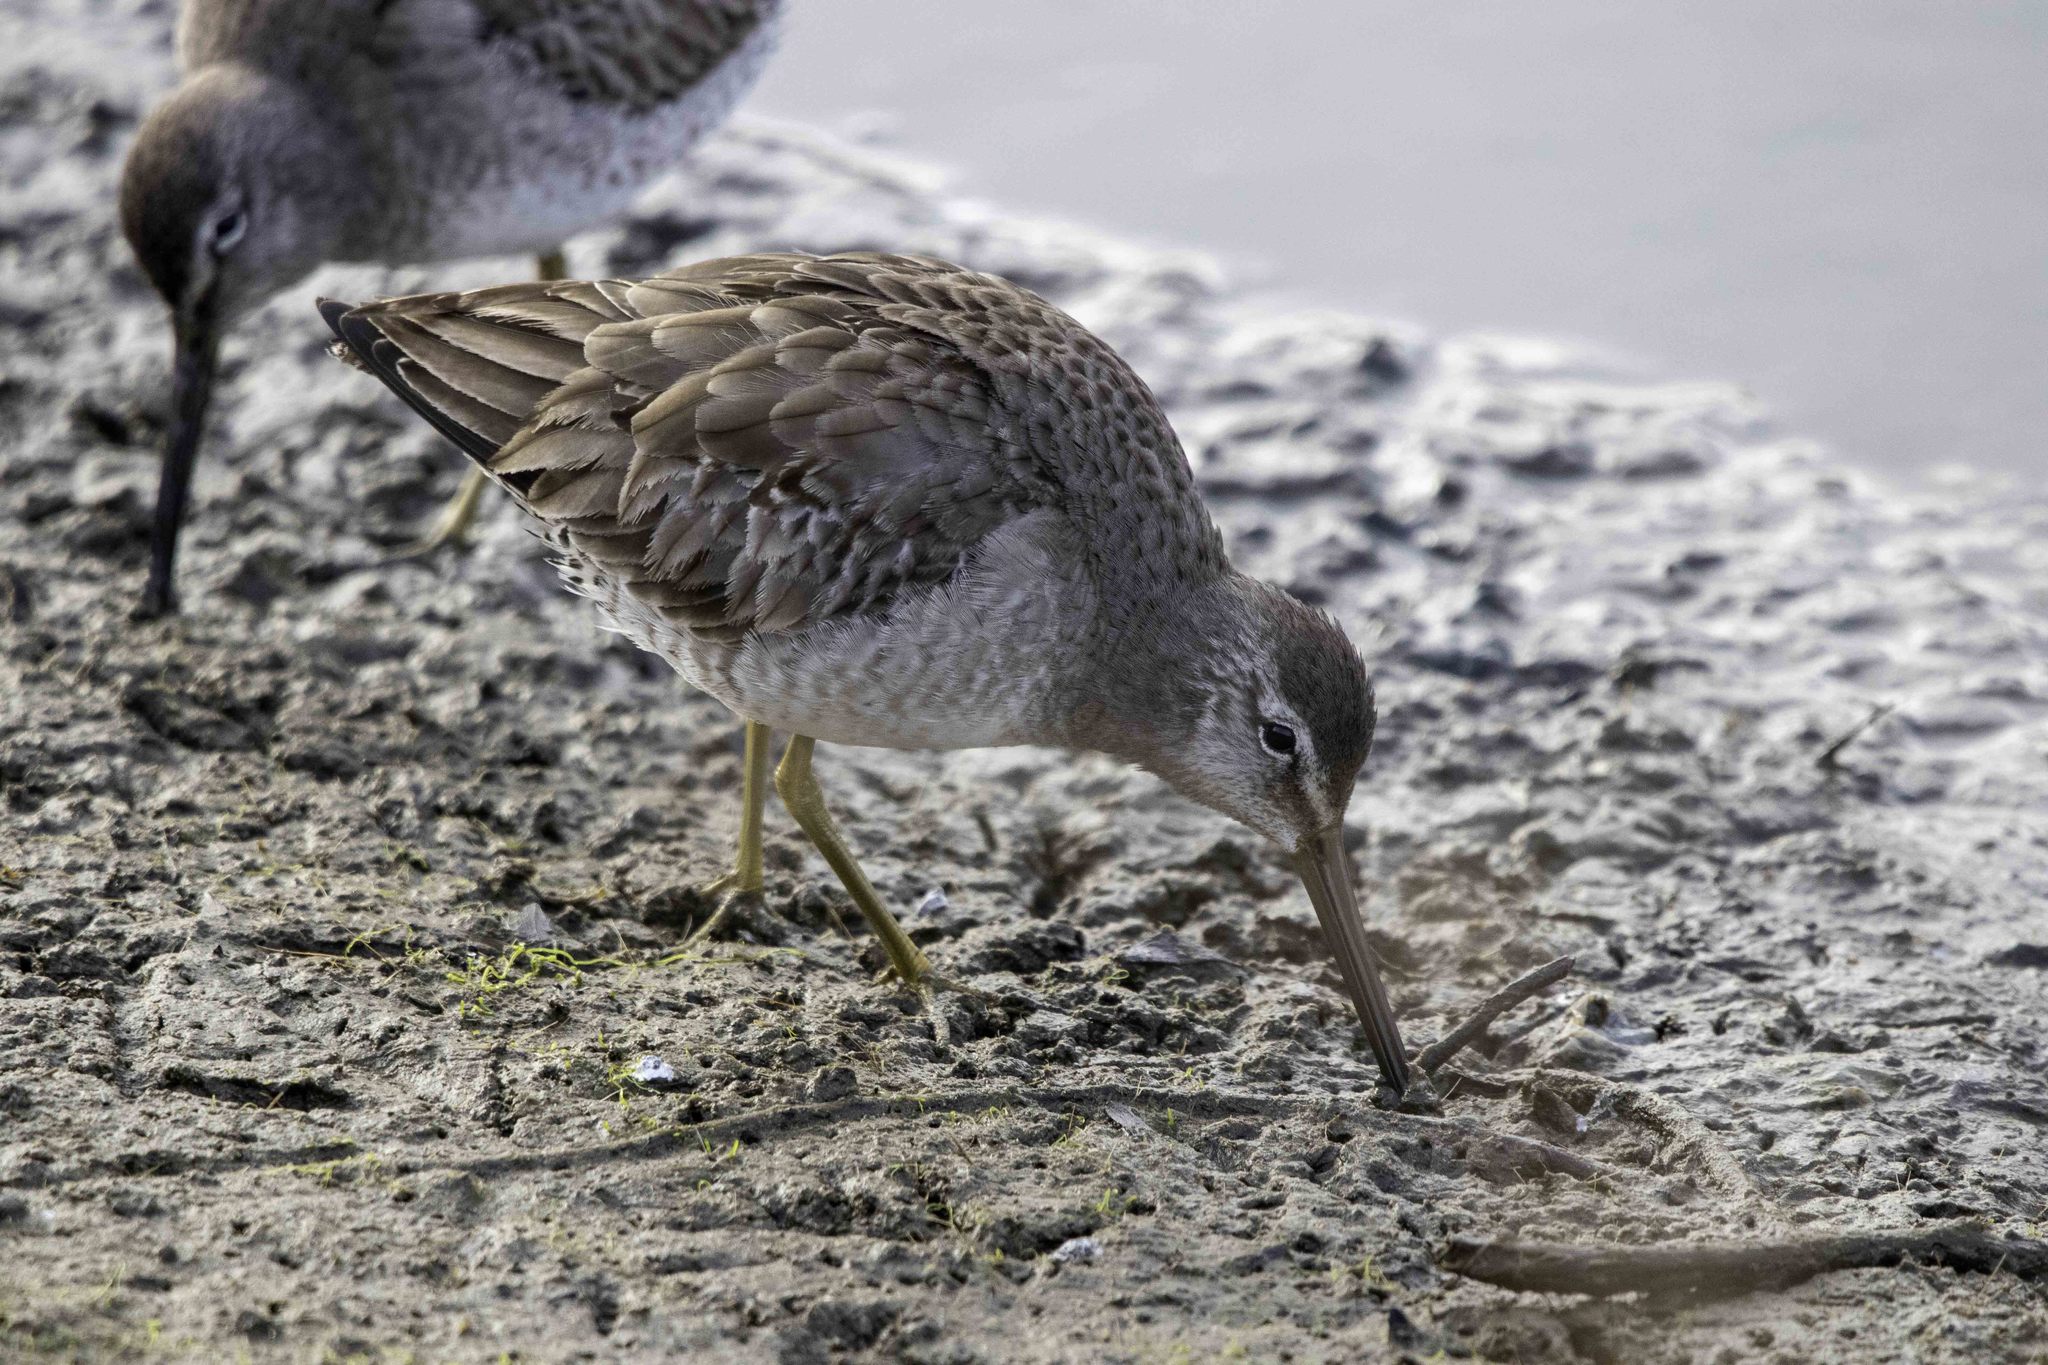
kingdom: Animalia
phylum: Chordata
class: Aves
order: Charadriiformes
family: Scolopacidae
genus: Limnodromus
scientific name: Limnodromus scolopaceus
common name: Long-billed dowitcher
